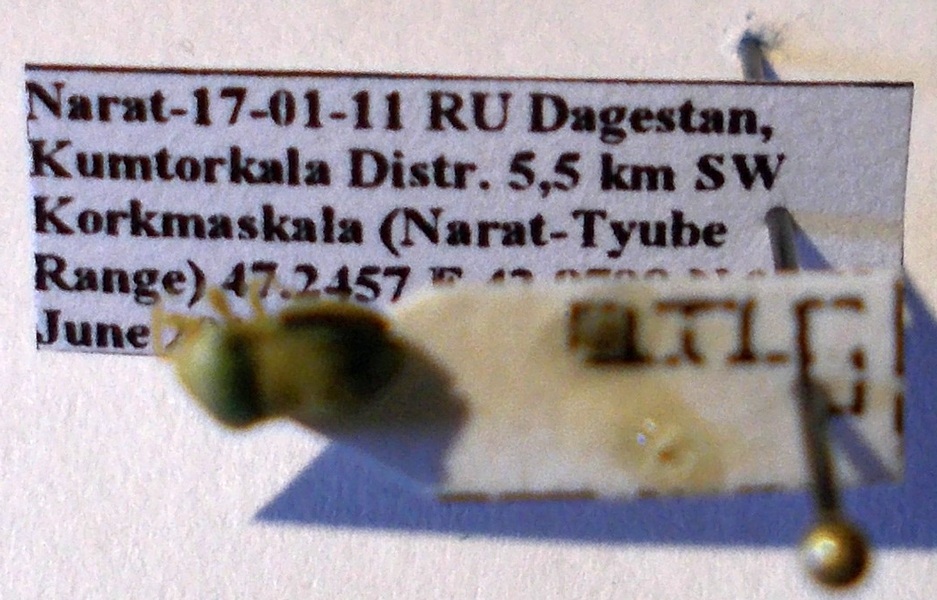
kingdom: Animalia
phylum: Arthropoda
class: Insecta
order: Hemiptera
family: Pentatomidae
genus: Tarisa
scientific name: Tarisa subspinosa
